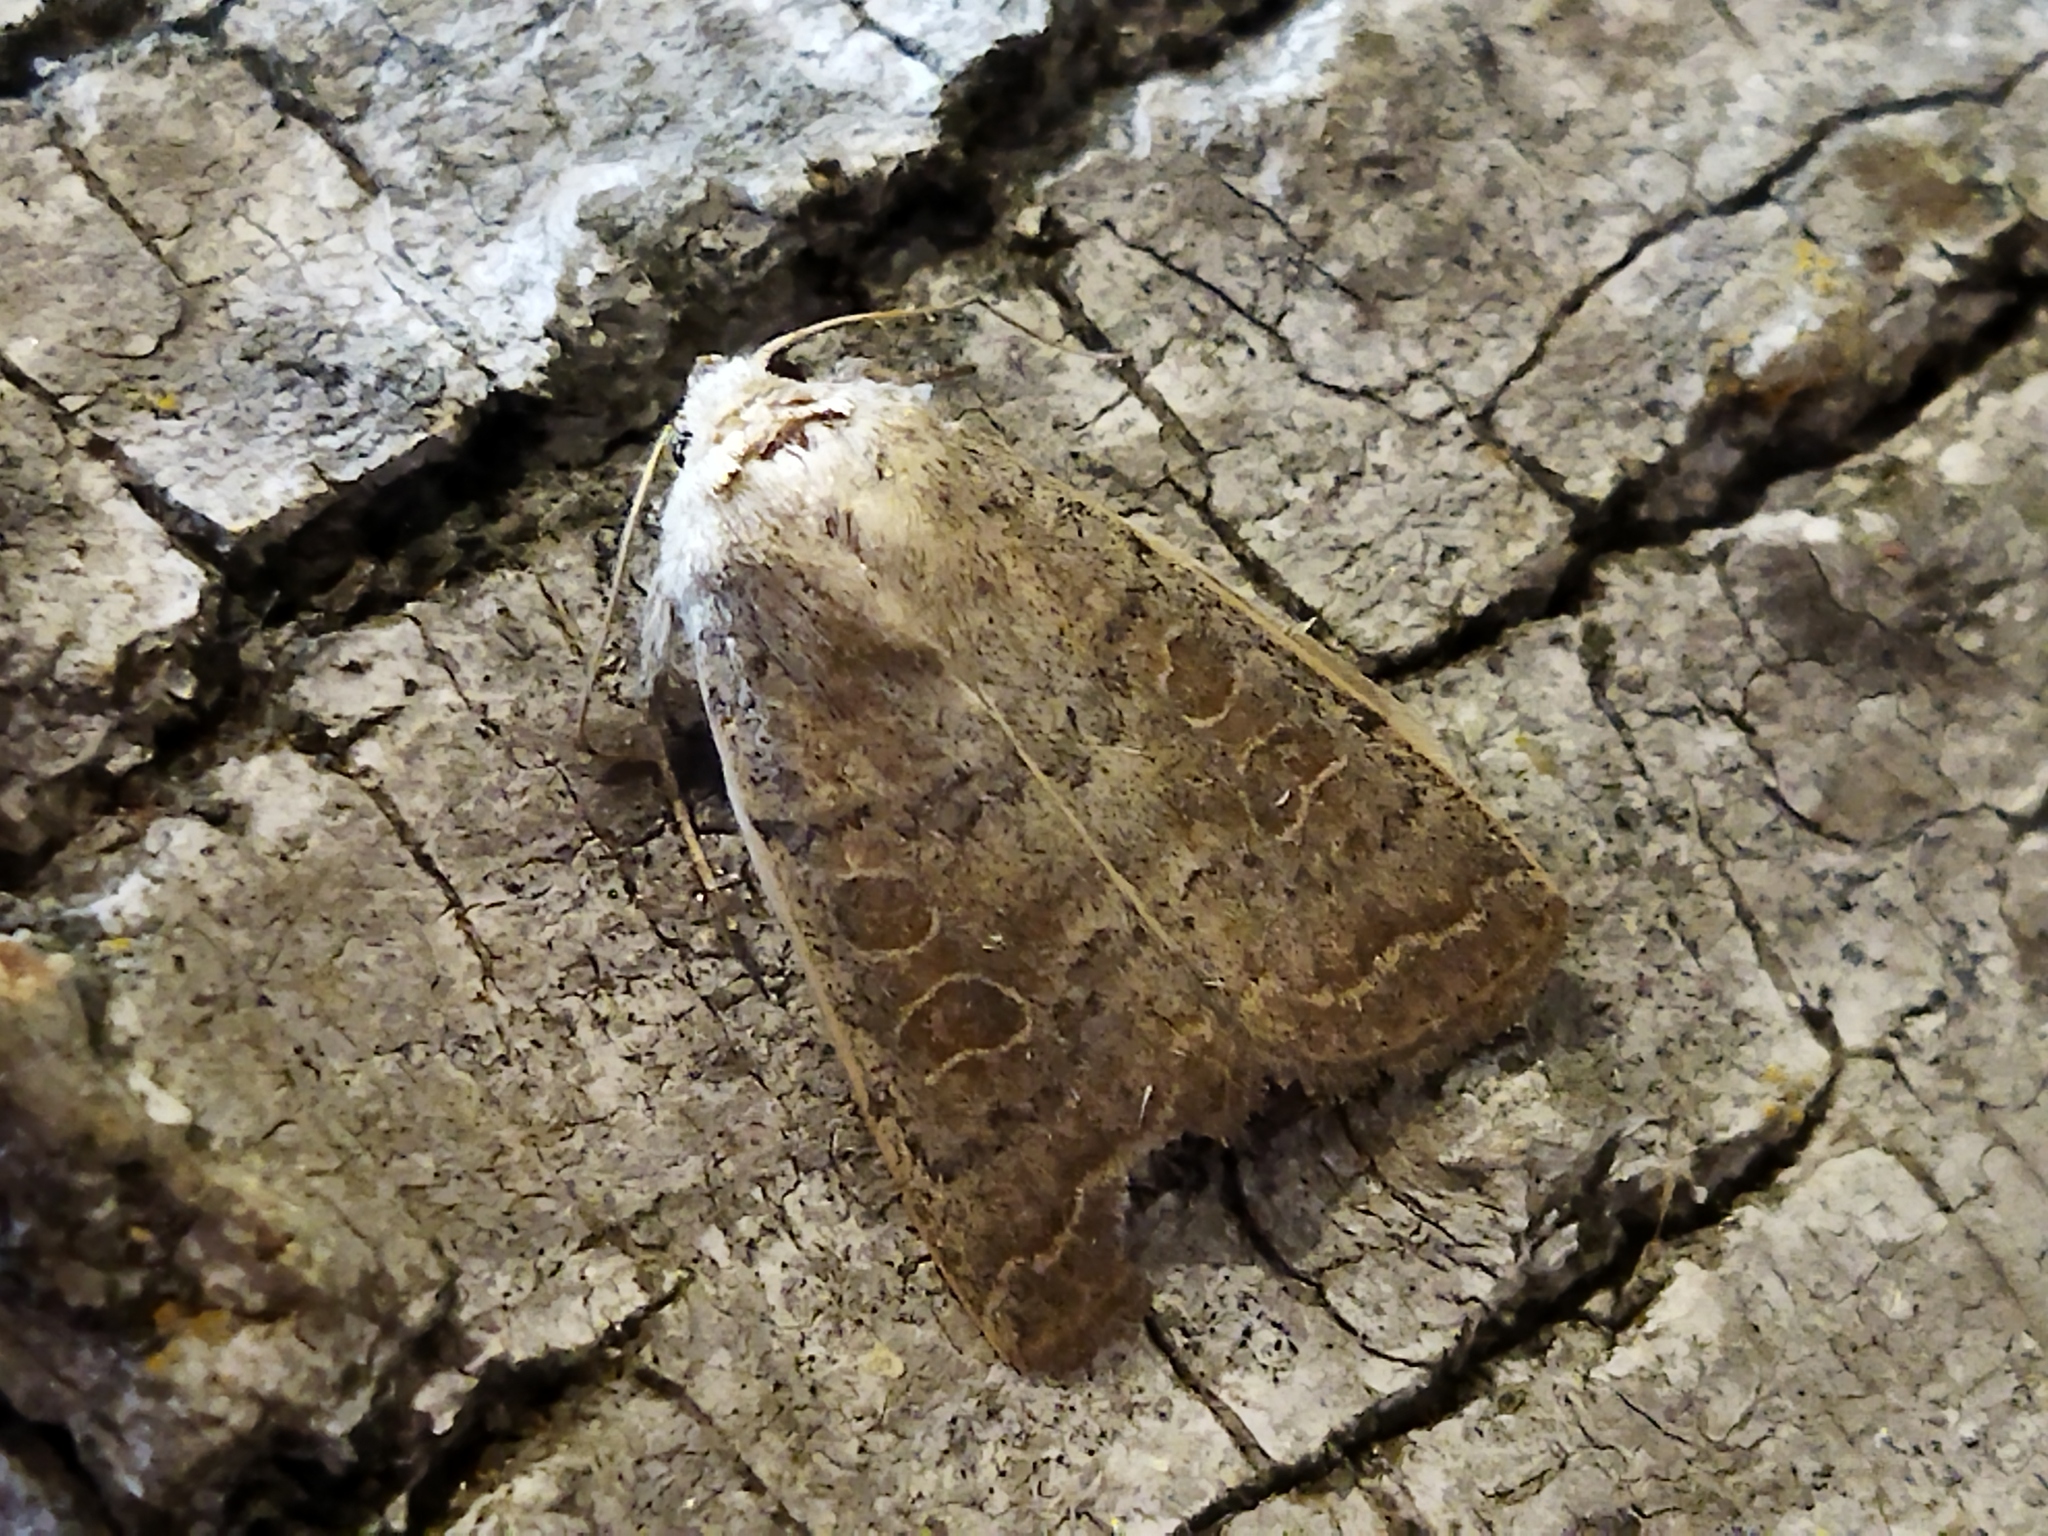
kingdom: Animalia
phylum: Arthropoda
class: Insecta
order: Lepidoptera
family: Noctuidae
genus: Hoplodrina
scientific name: Hoplodrina ambigua
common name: Vine's rustic
